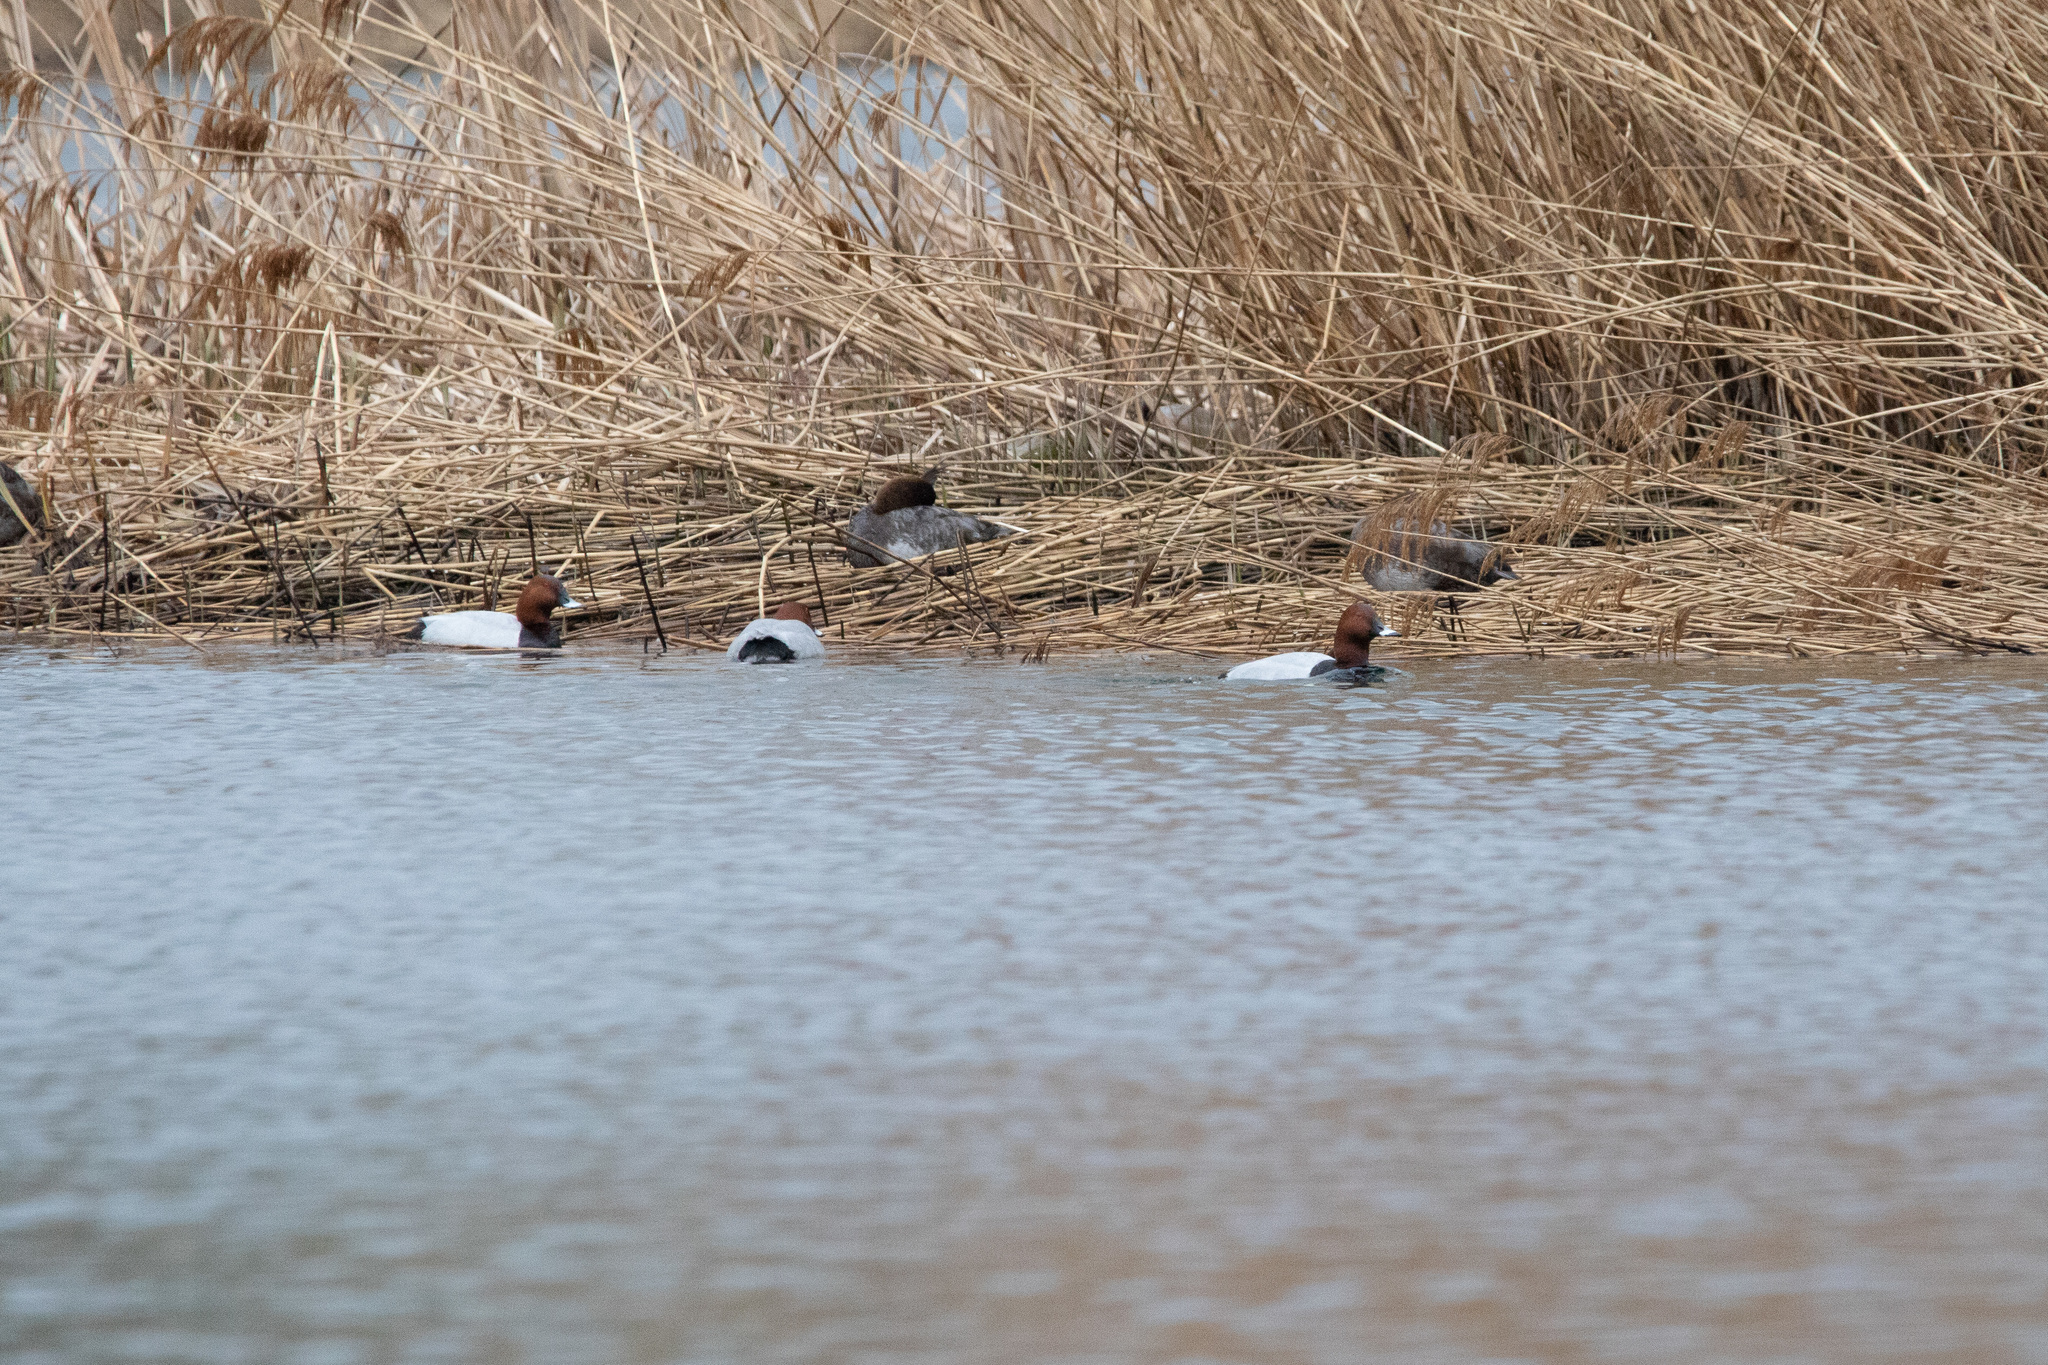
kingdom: Animalia
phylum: Chordata
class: Aves
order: Anseriformes
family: Anatidae
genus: Aythya
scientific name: Aythya ferina
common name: Common pochard
